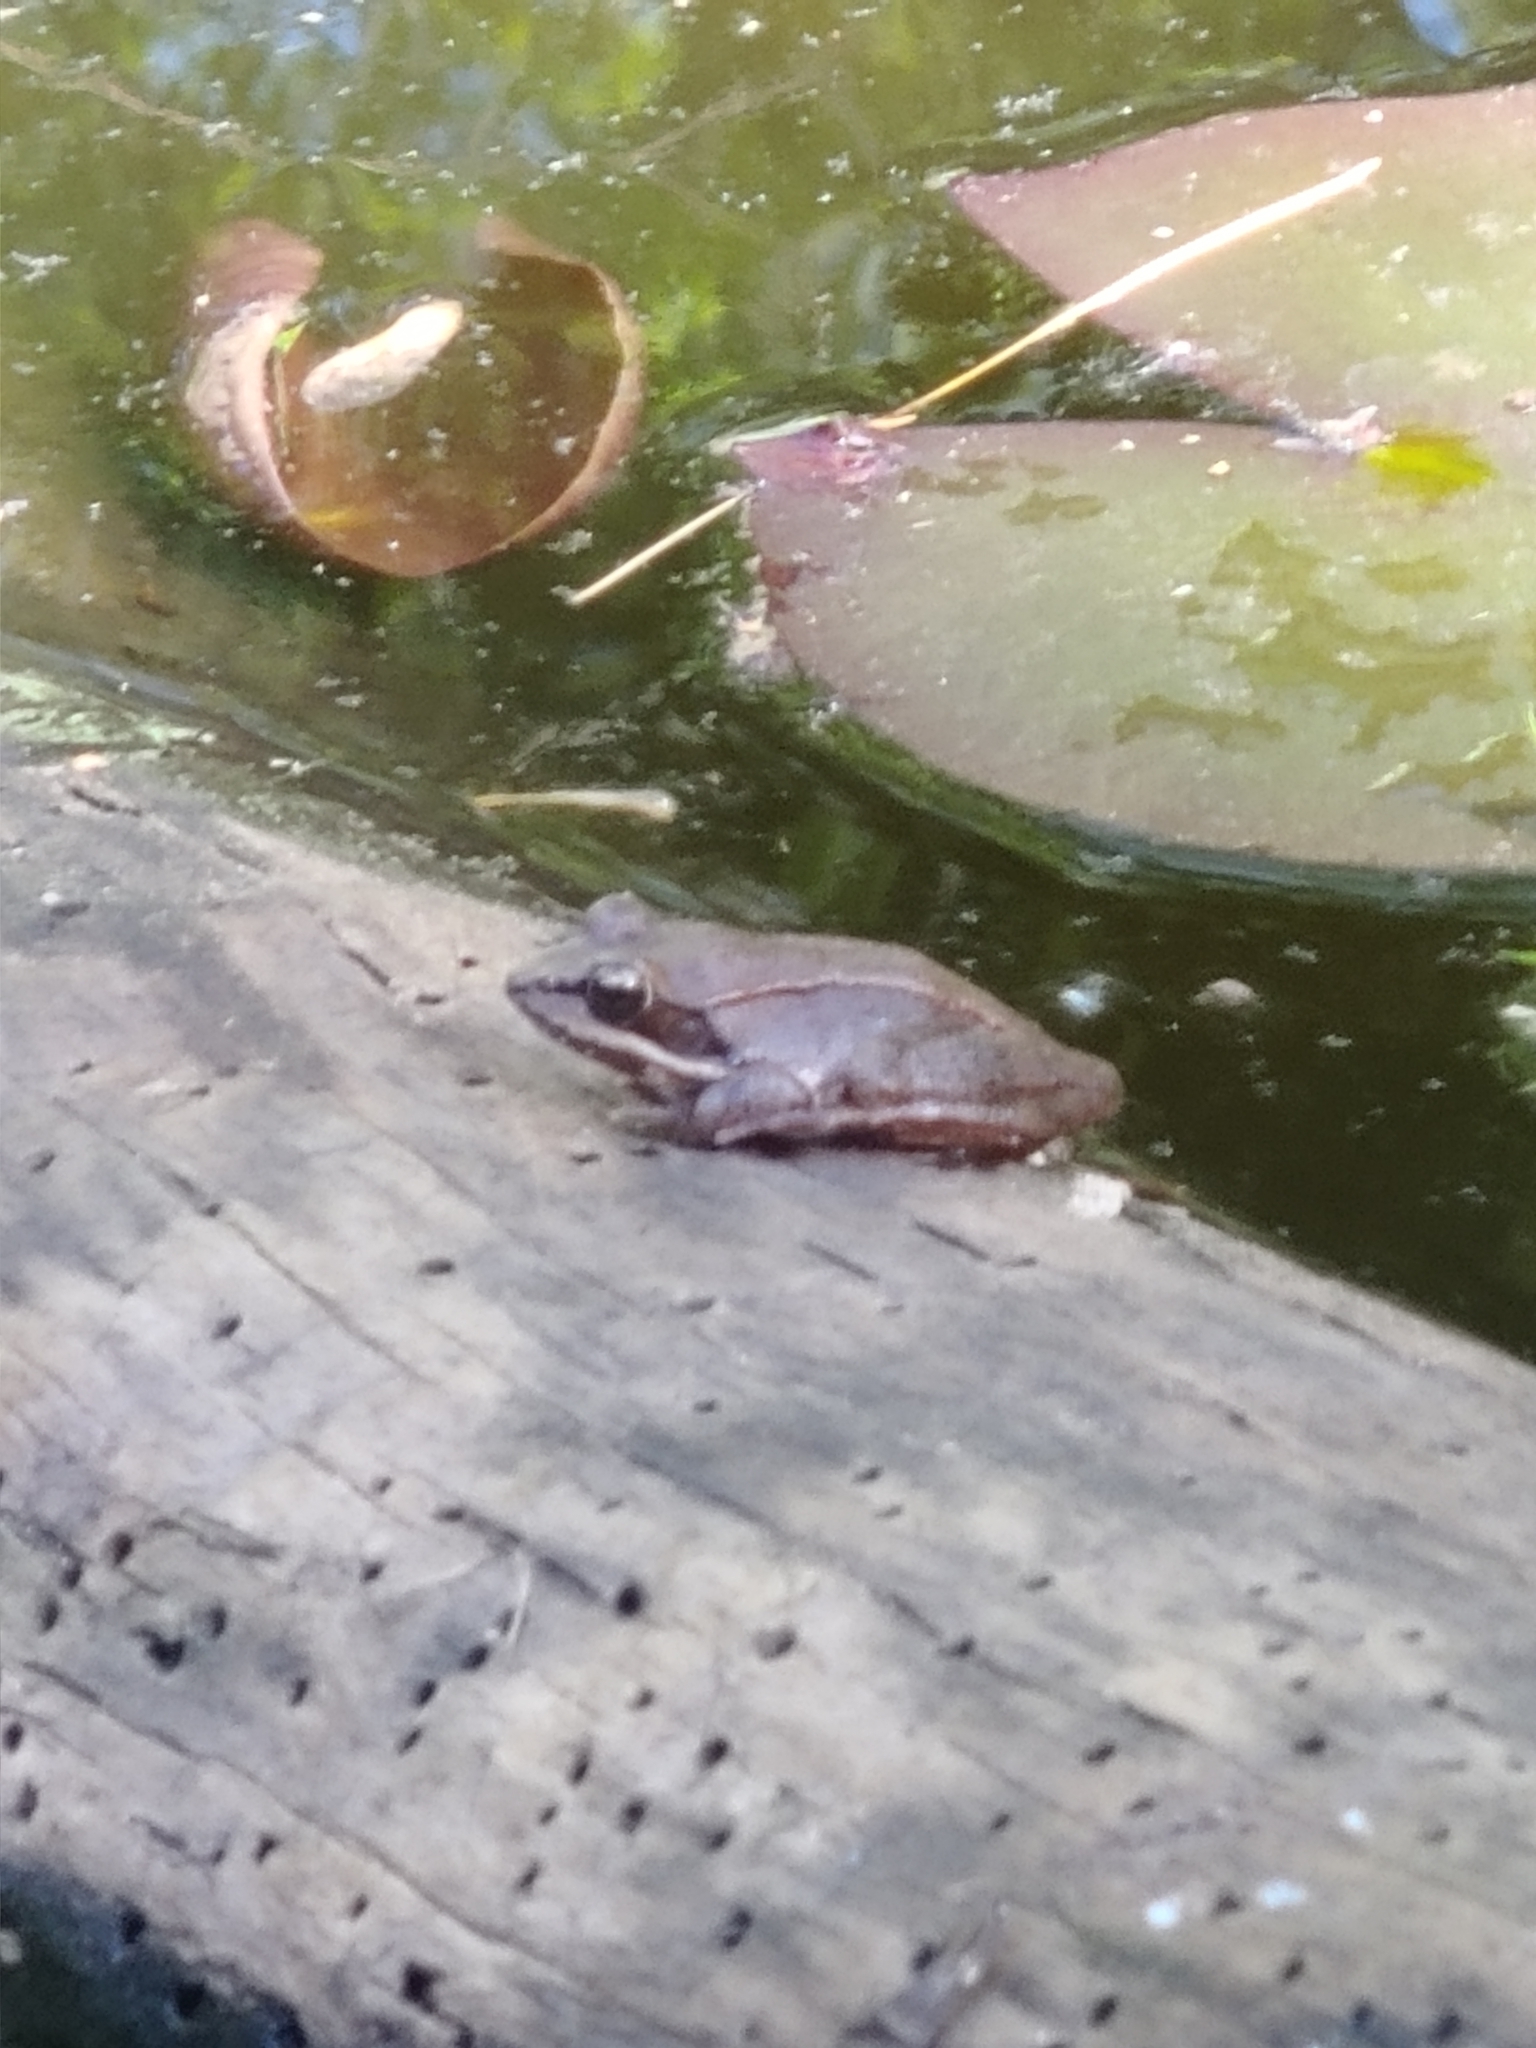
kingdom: Animalia
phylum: Chordata
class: Amphibia
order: Anura
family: Ranidae
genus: Lithobates
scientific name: Lithobates sylvaticus
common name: Wood frog
